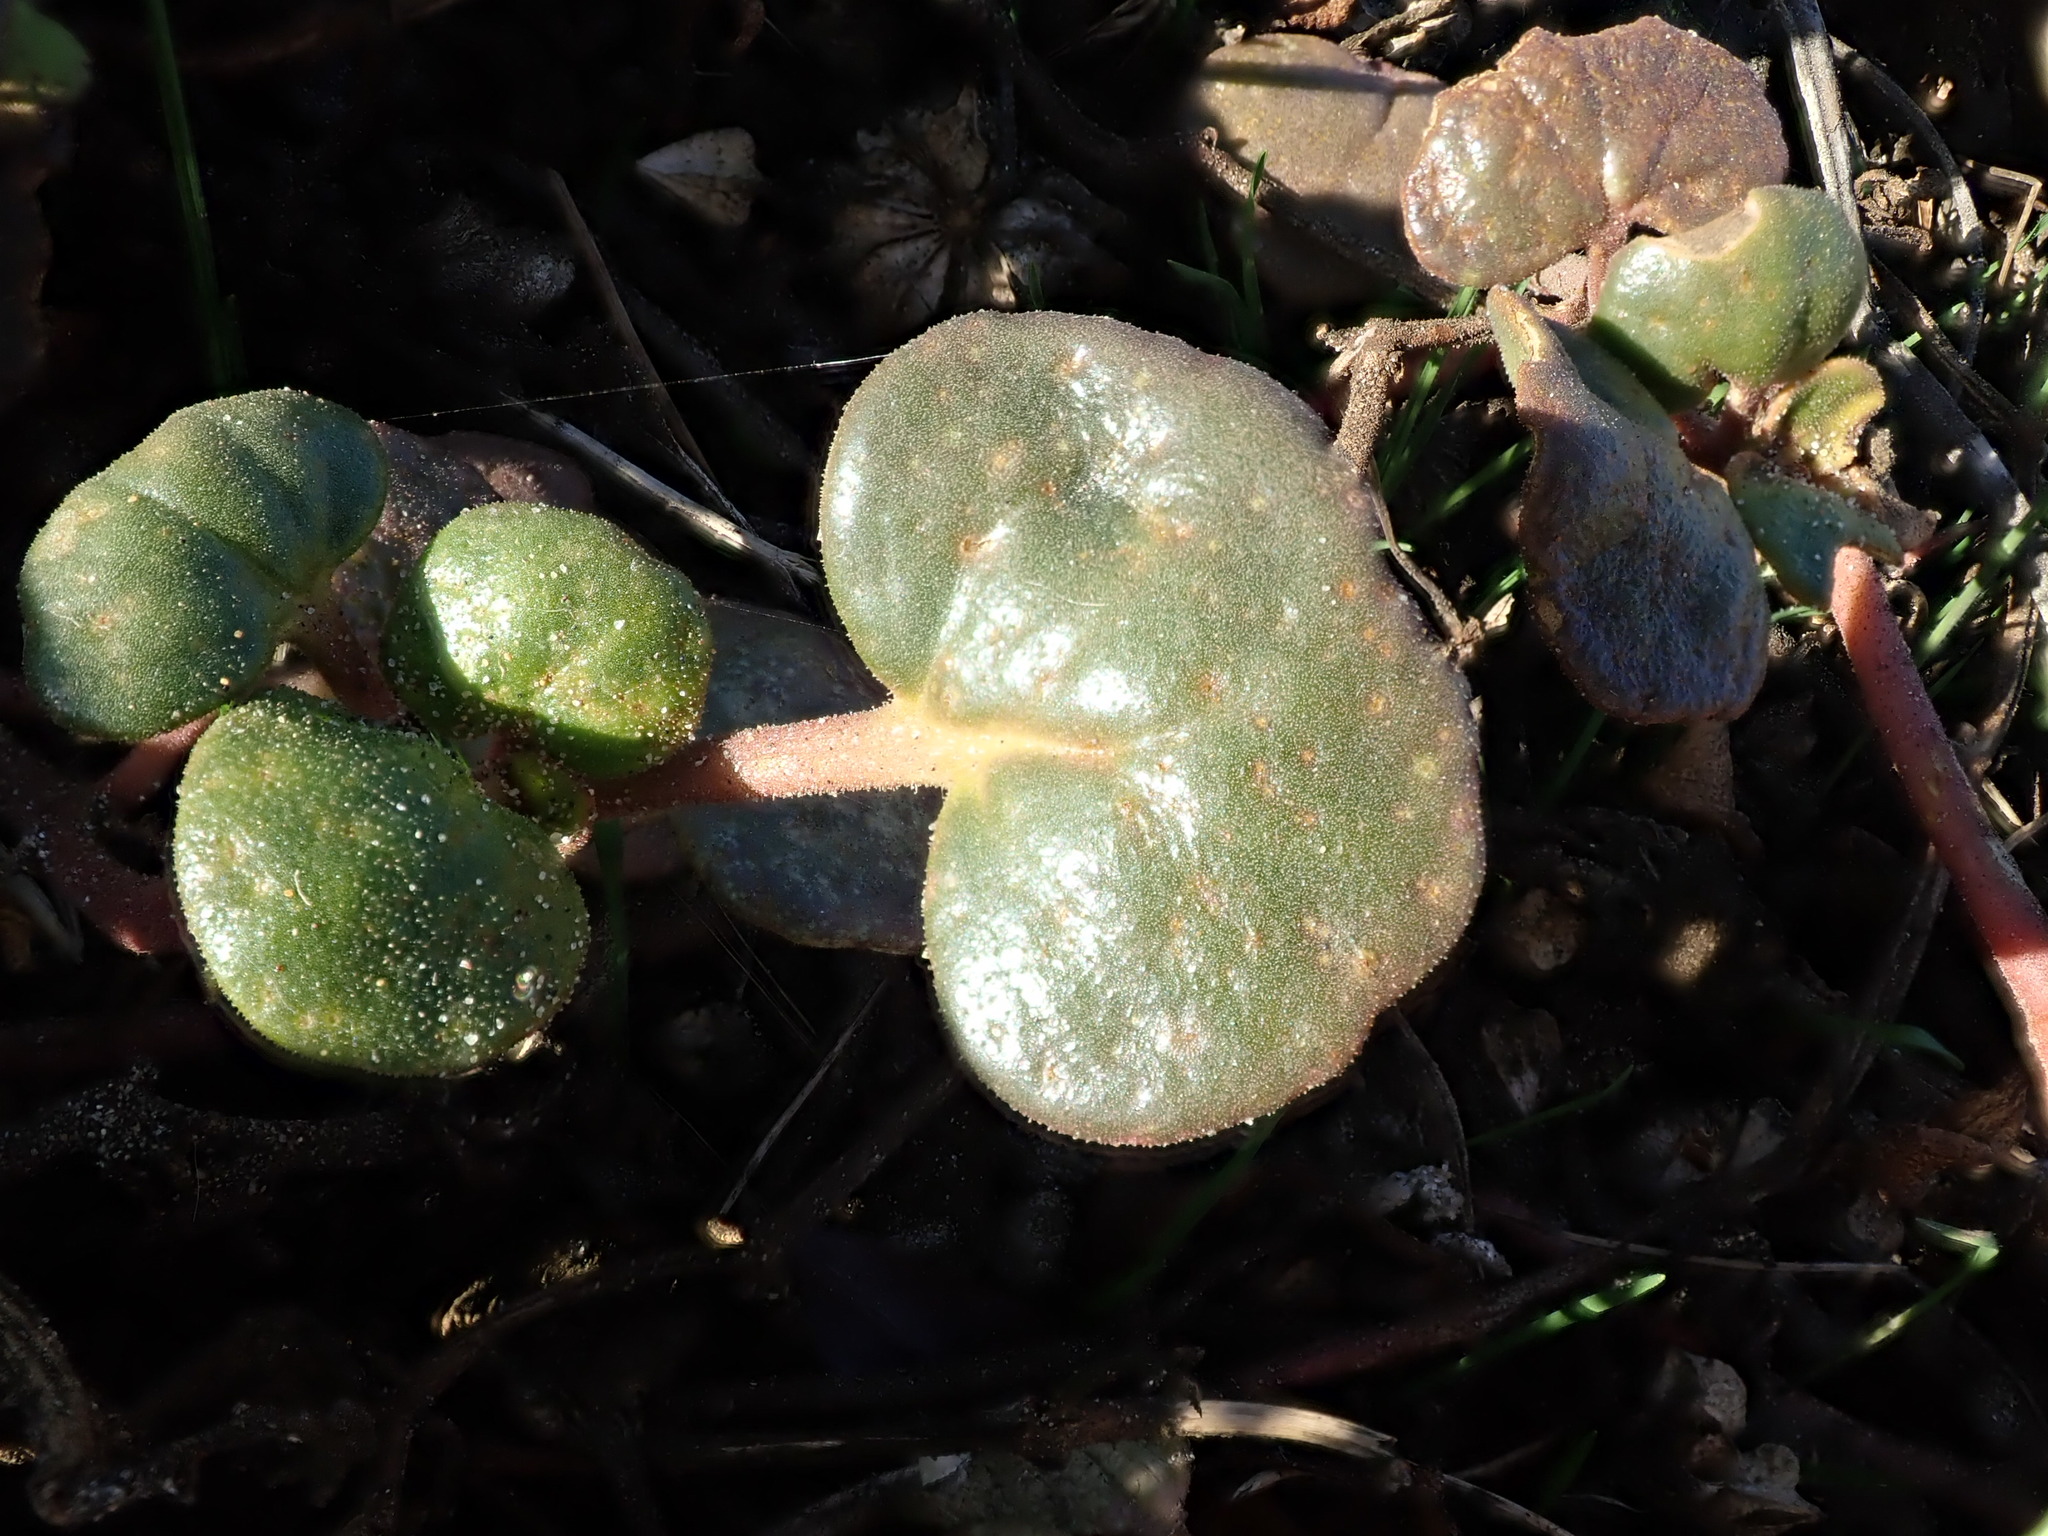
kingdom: Plantae
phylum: Tracheophyta
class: Magnoliopsida
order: Caryophyllales
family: Nyctaginaceae
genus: Abronia
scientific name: Abronia latifolia
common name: Yellow sand-verbena
